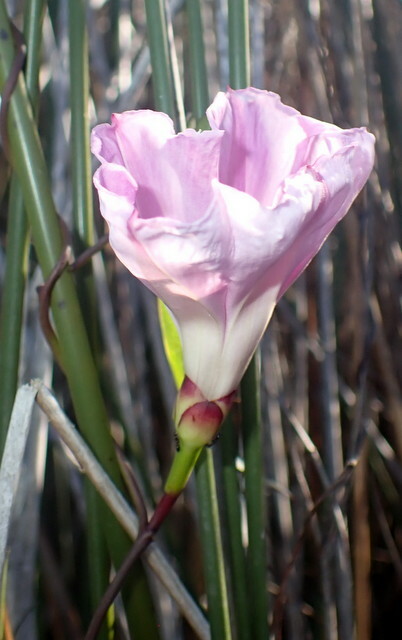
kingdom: Plantae
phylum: Tracheophyta
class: Magnoliopsida
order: Solanales
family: Convolvulaceae
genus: Ipomoea
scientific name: Ipomoea sagittata
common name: Saltmarsh morning glory
